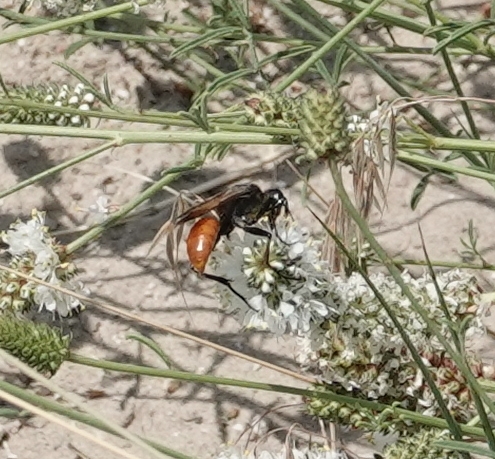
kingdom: Animalia
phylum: Arthropoda
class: Insecta
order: Hymenoptera
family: Sphecidae
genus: Sphex
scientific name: Sphex lucae
